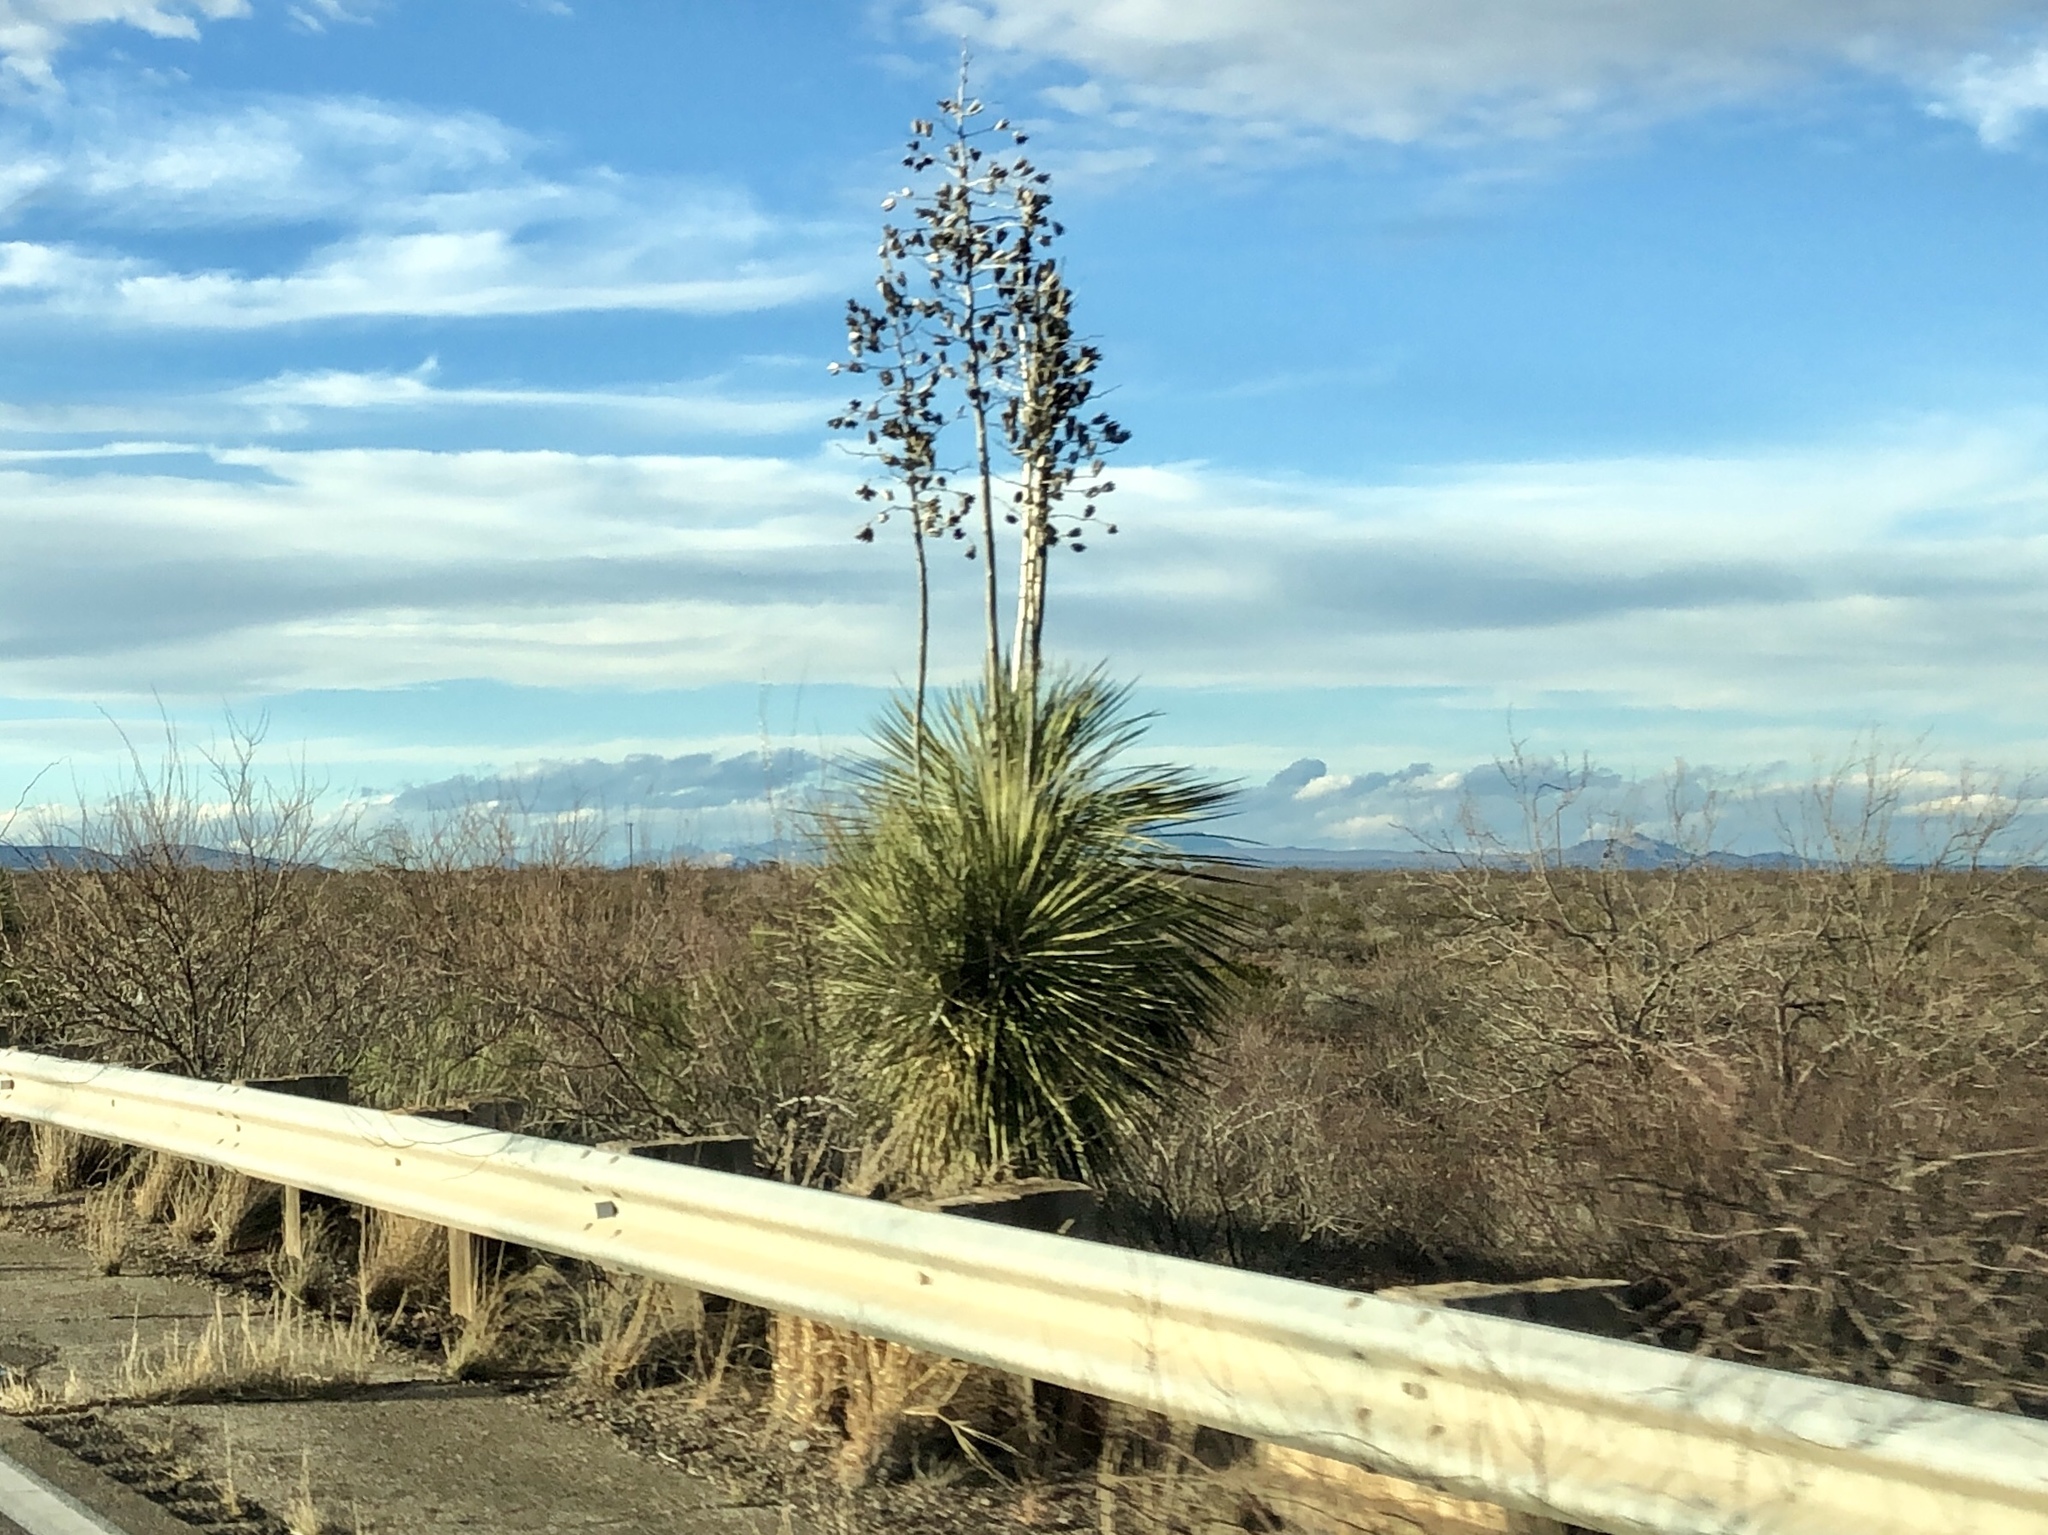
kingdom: Plantae
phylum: Tracheophyta
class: Liliopsida
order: Asparagales
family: Asparagaceae
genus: Yucca
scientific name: Yucca elata
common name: Palmella
